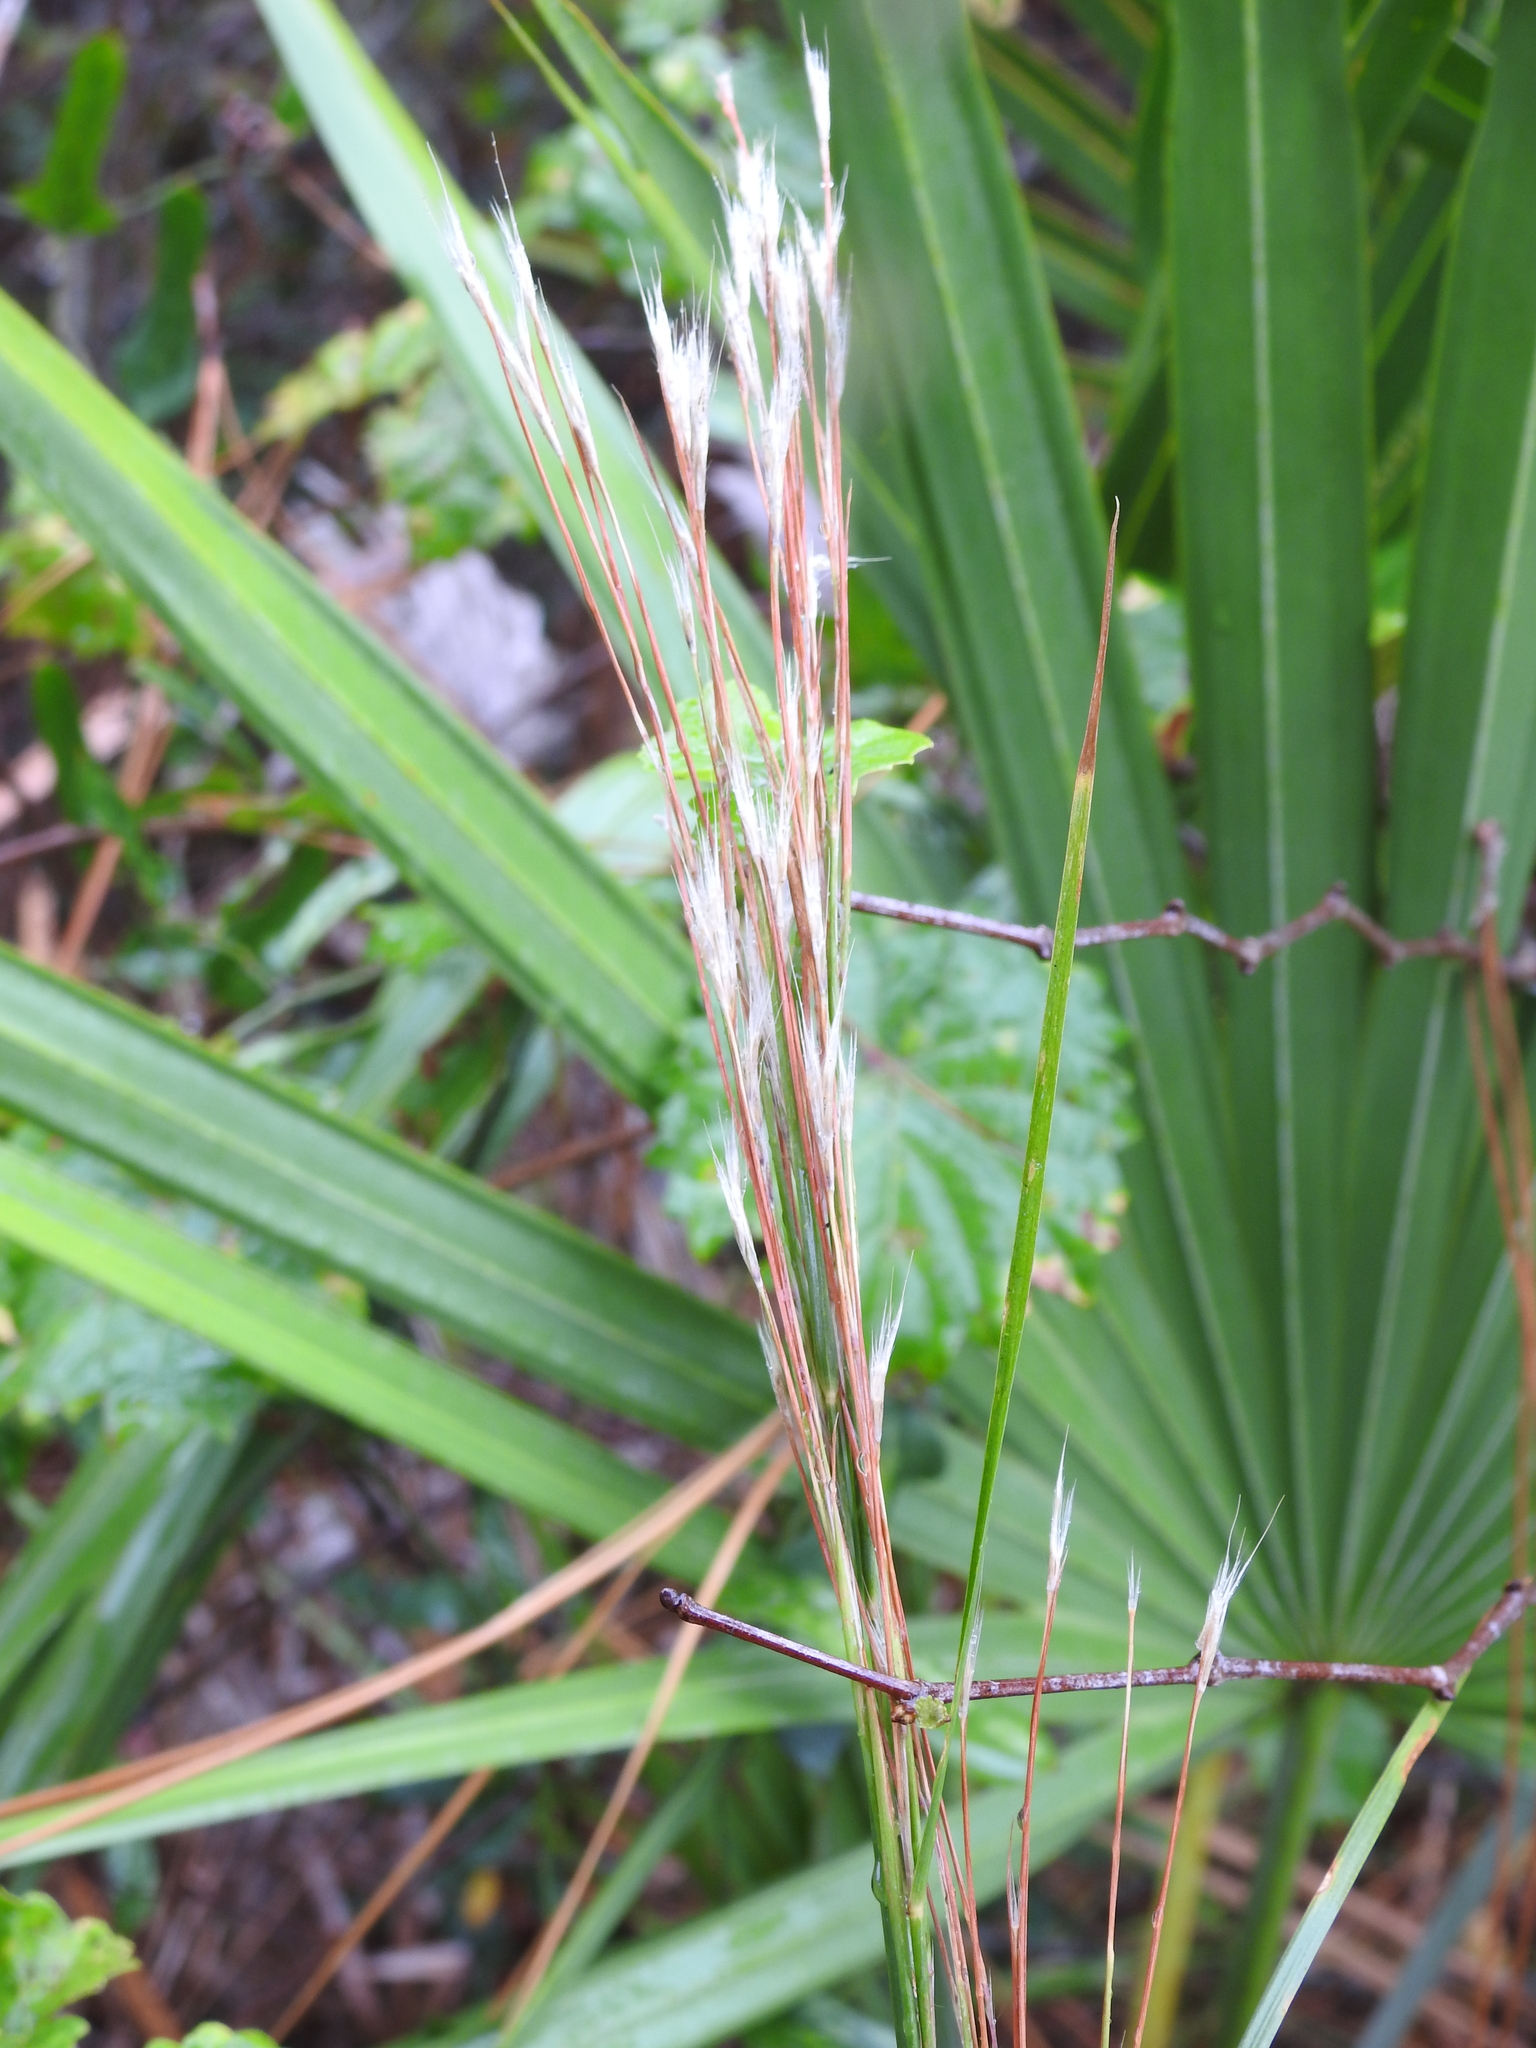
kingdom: Plantae
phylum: Tracheophyta
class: Liliopsida
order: Poales
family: Poaceae
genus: Andropogon
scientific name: Andropogon floridanus
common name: Florida bluestem
